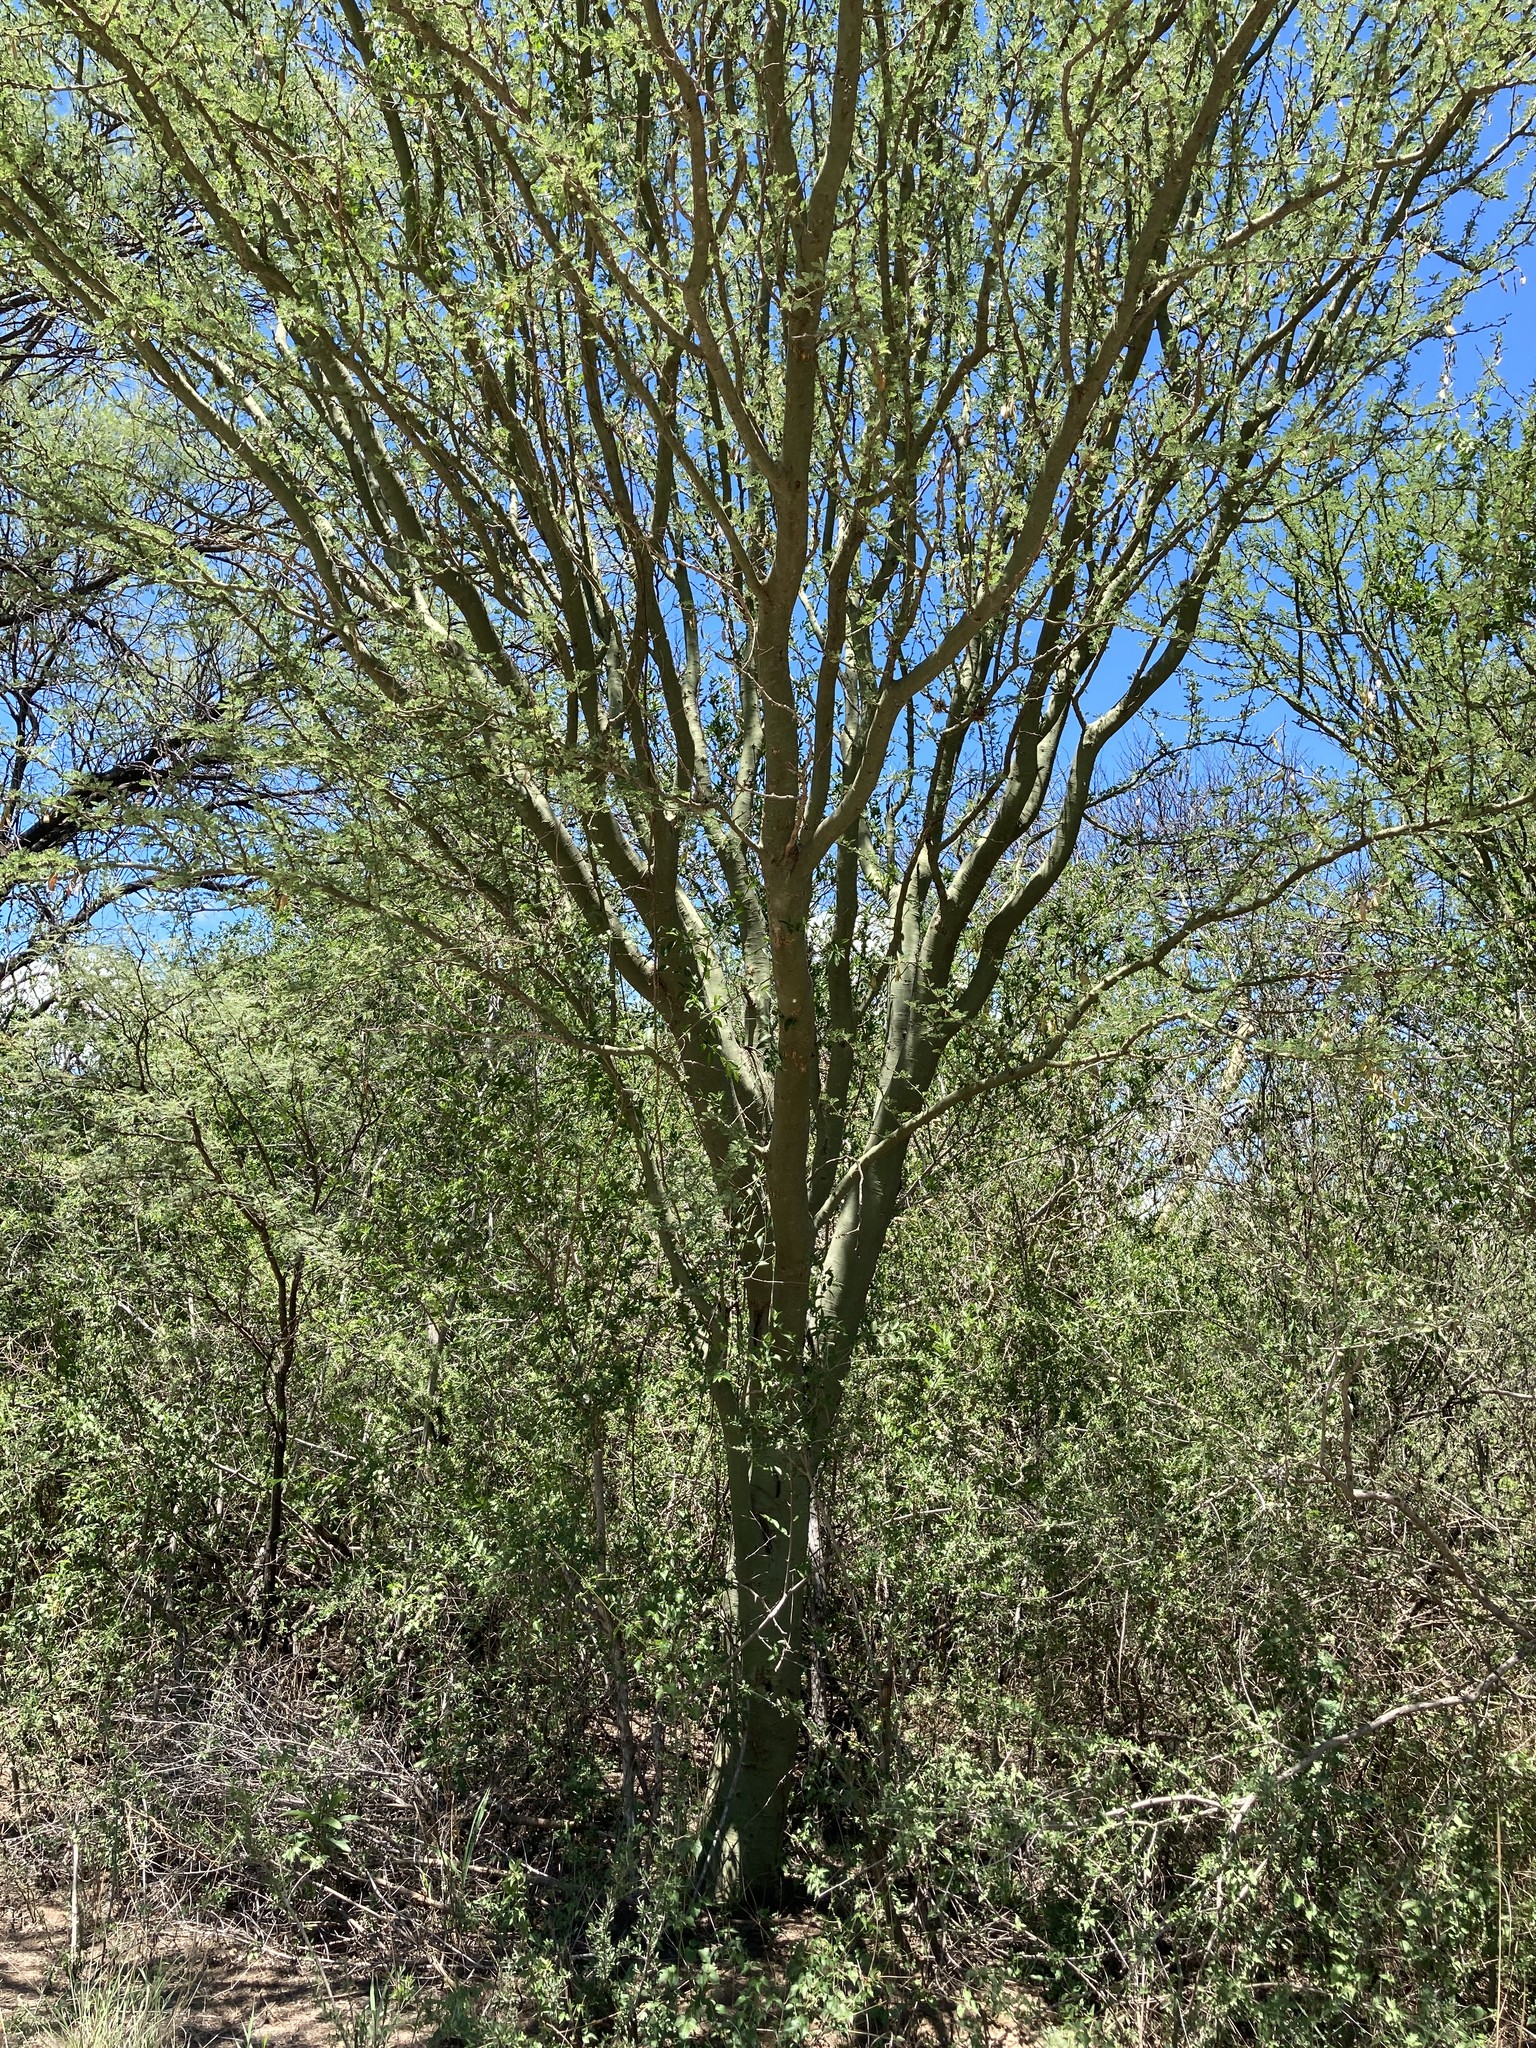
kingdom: Plantae
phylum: Tracheophyta
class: Magnoliopsida
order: Fabales
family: Fabaceae
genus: Parkinsonia
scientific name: Parkinsonia praecox
